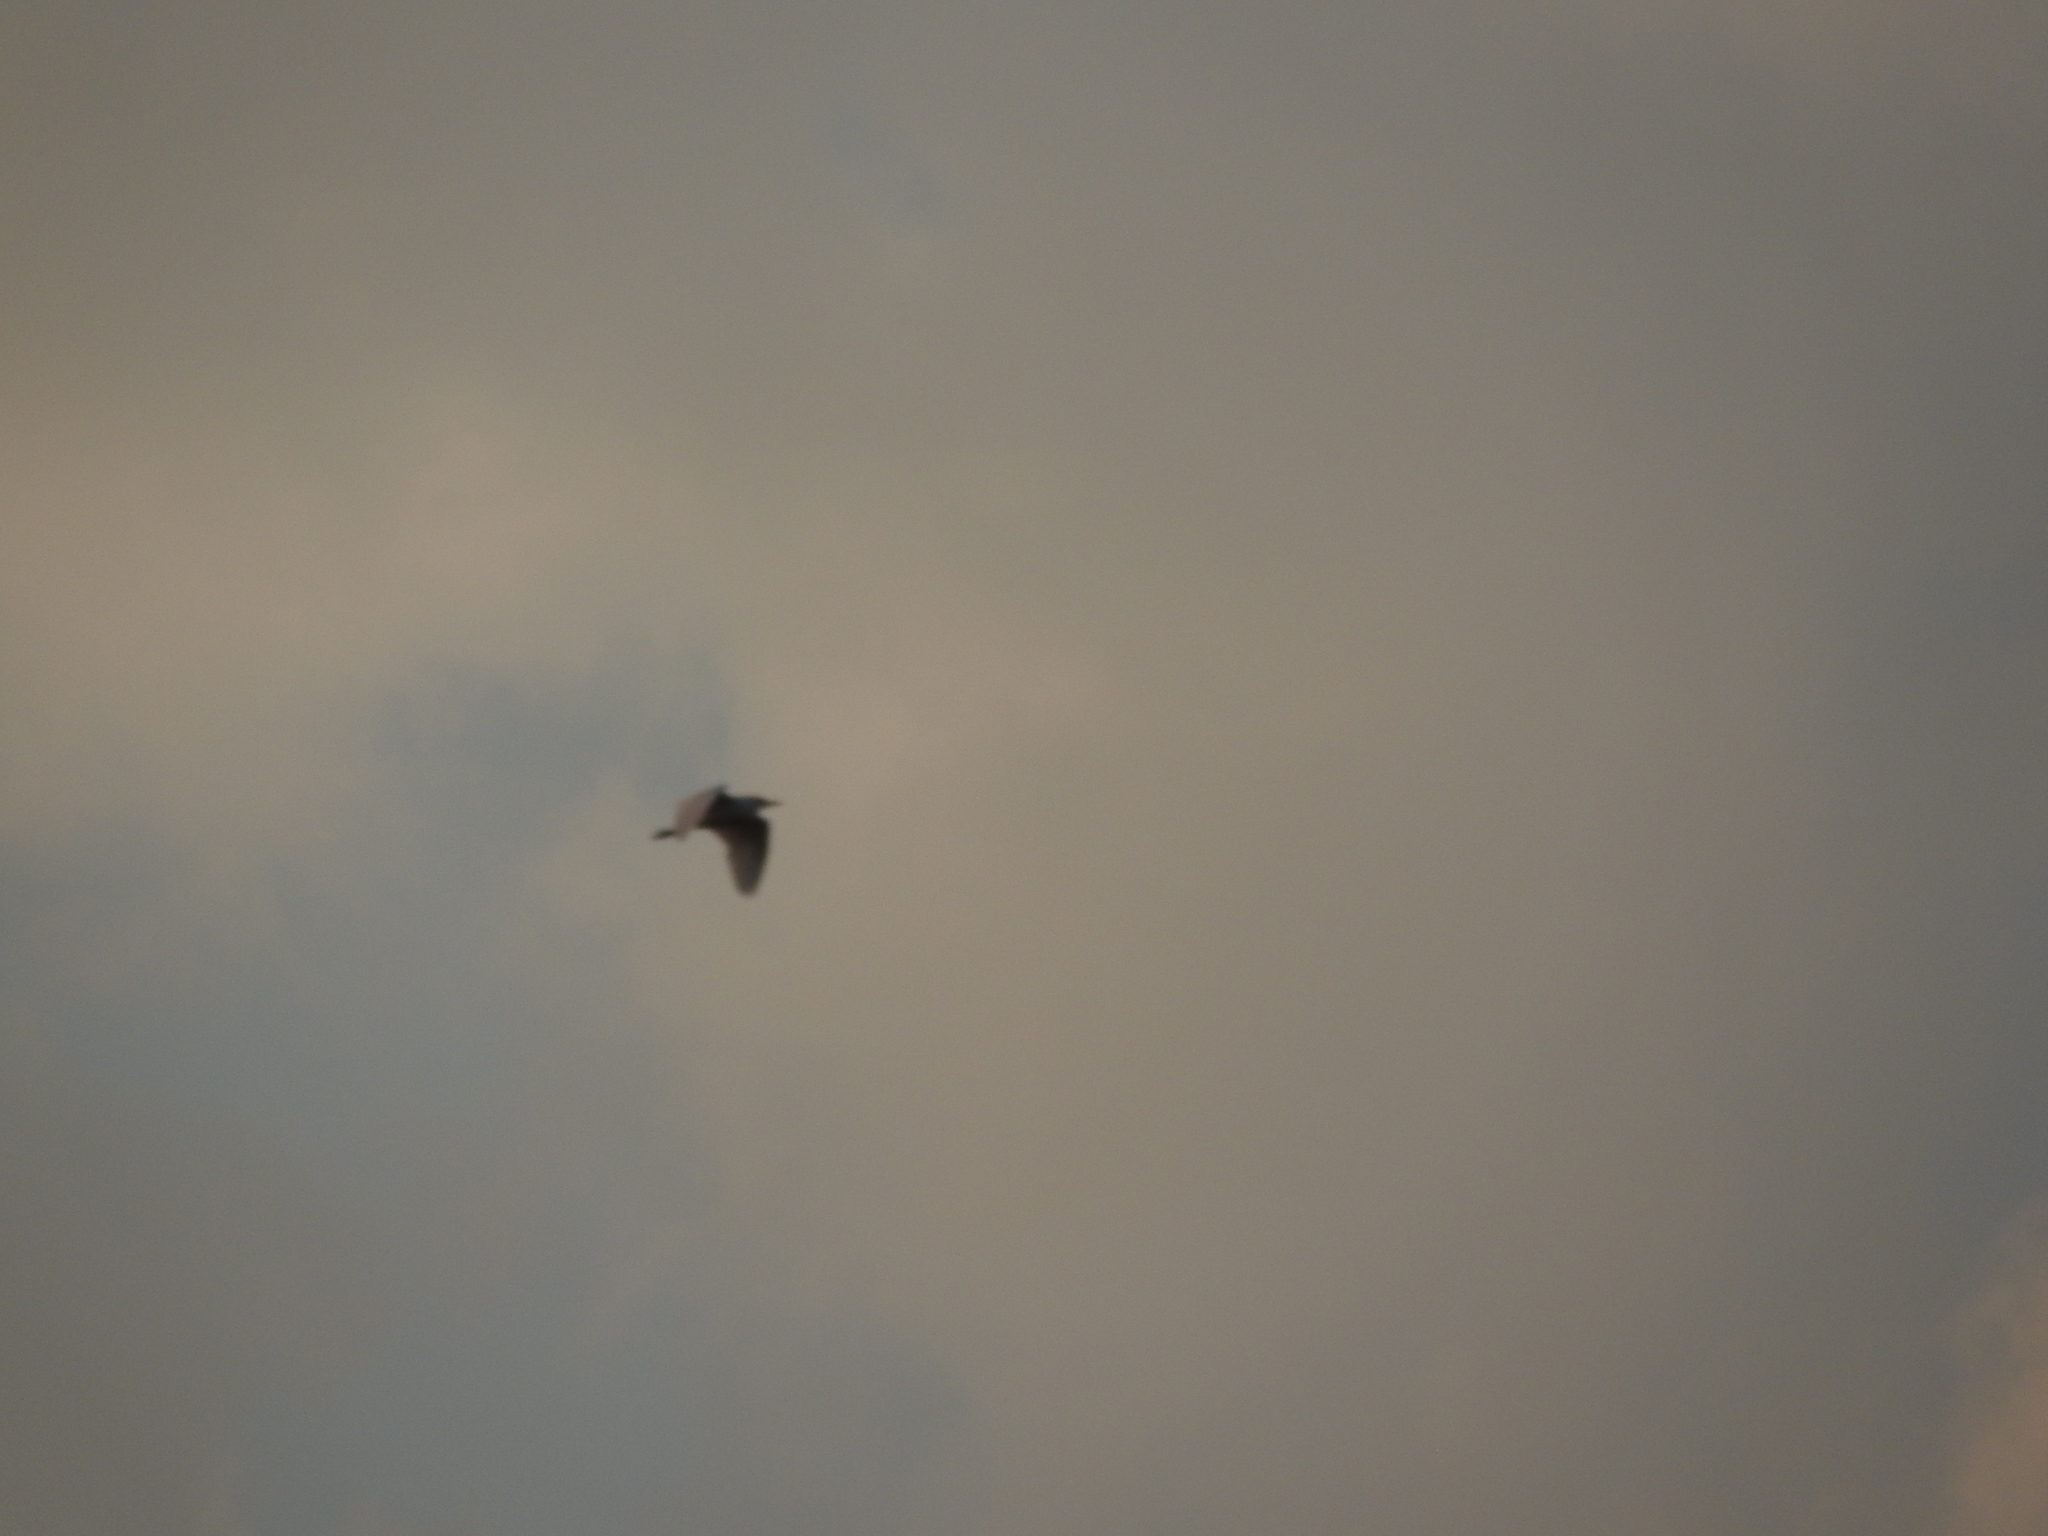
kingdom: Animalia
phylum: Chordata
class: Aves
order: Pelecaniformes
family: Ardeidae
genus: Bubulcus
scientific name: Bubulcus ibis
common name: Cattle egret
